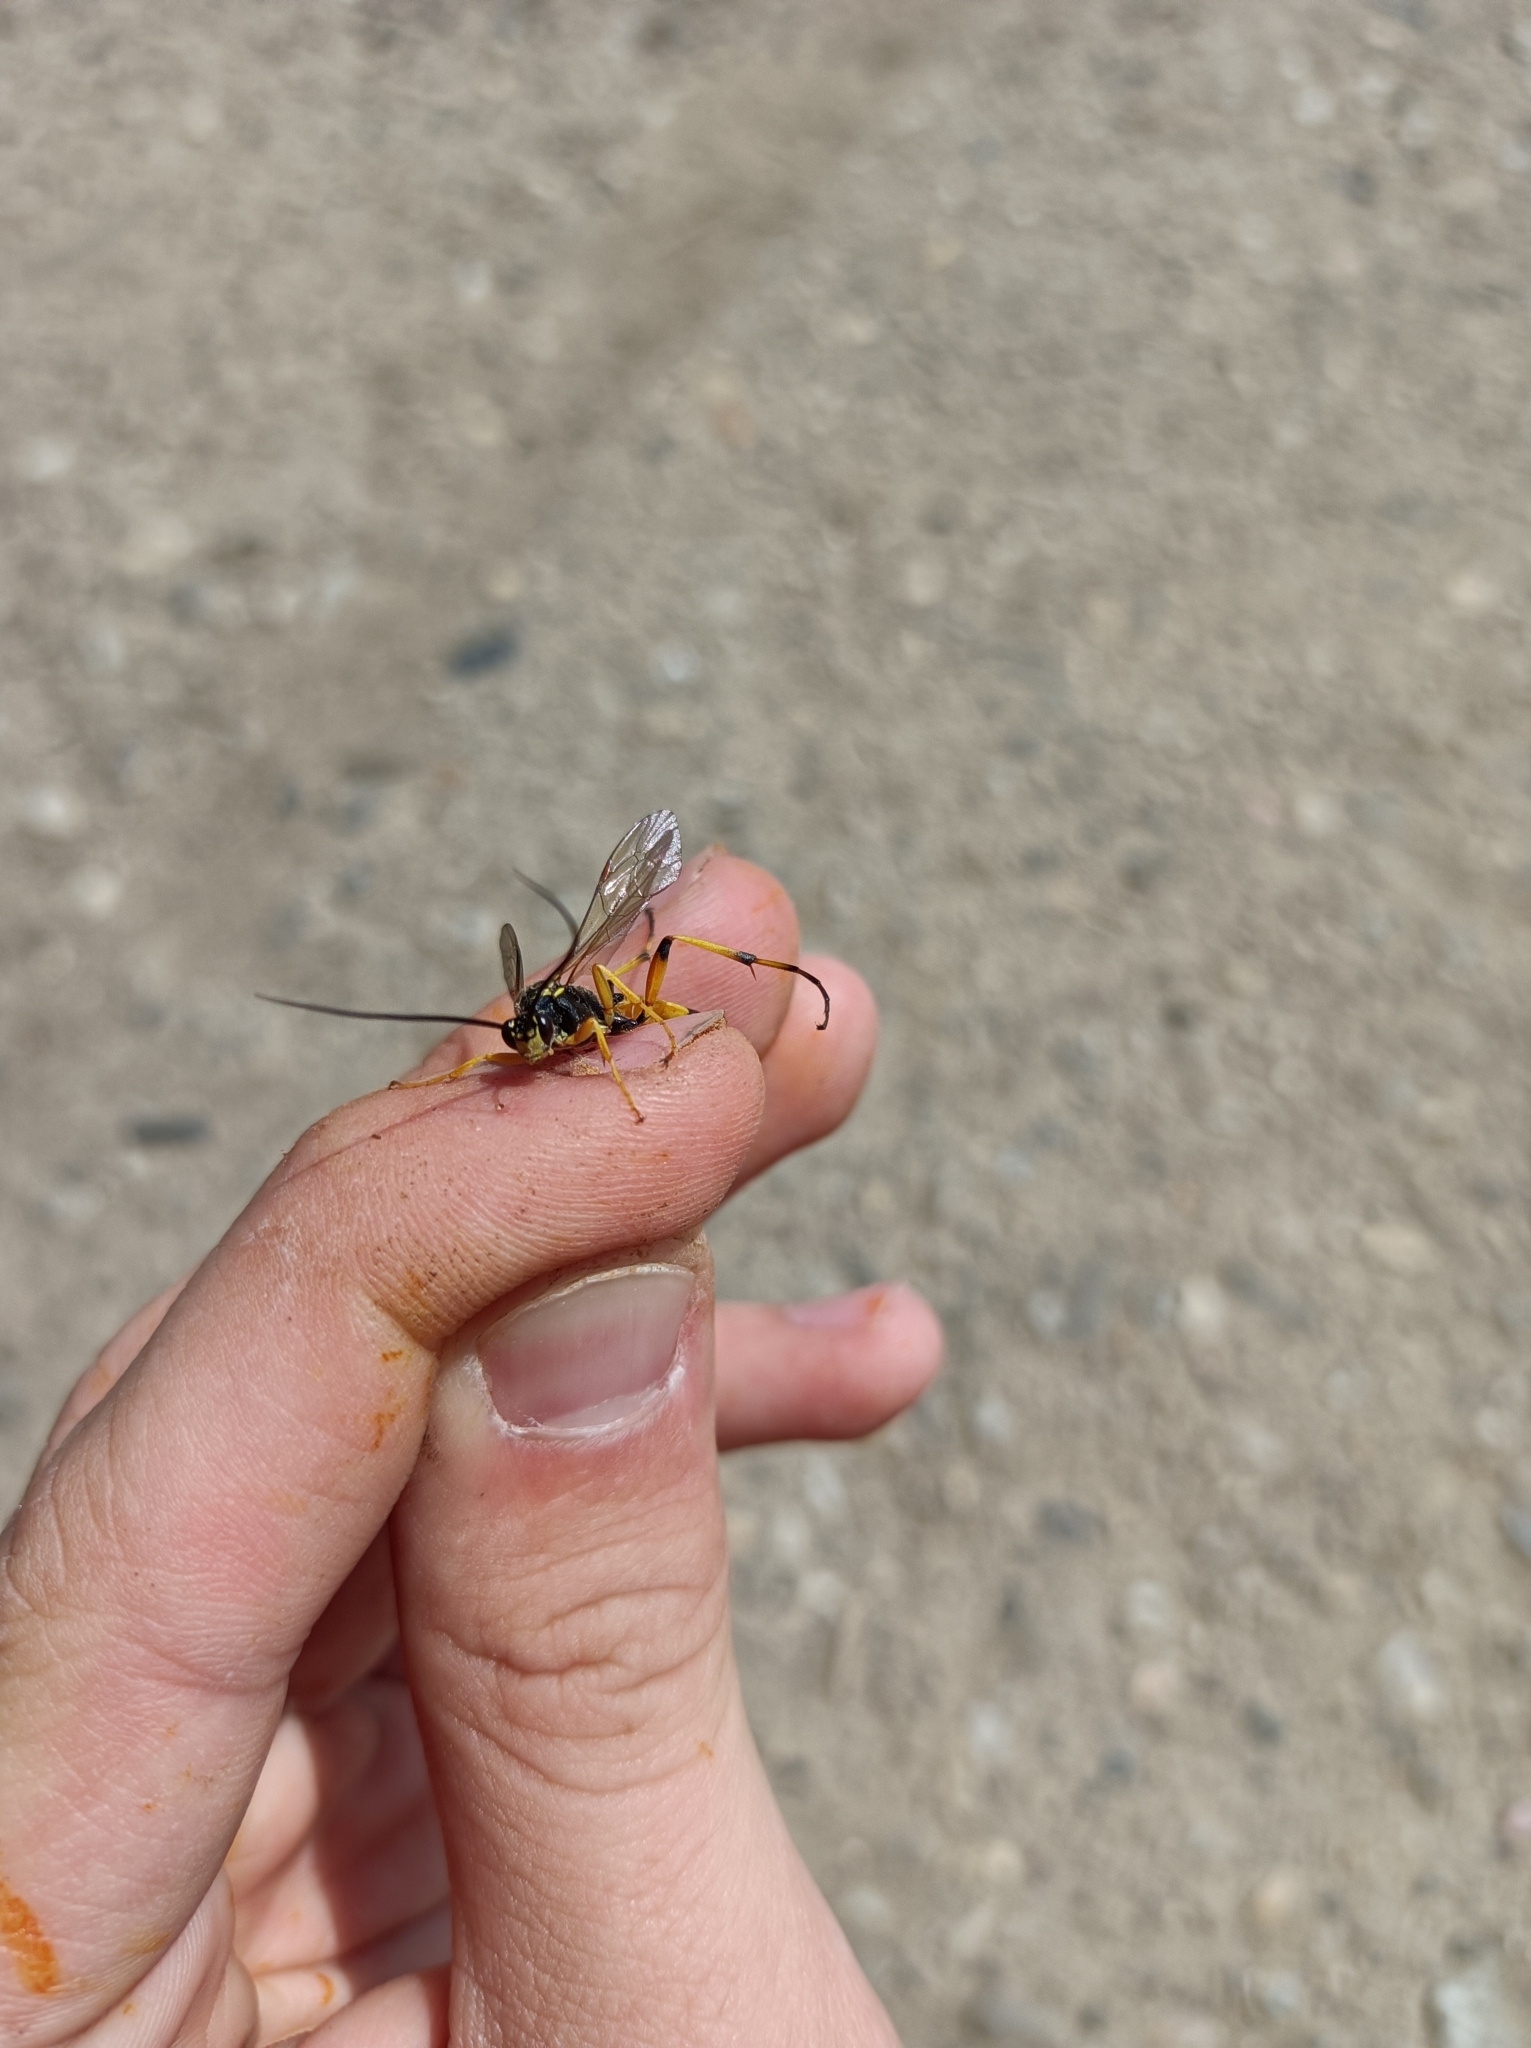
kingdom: Animalia
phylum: Arthropoda
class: Insecta
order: Hymenoptera
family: Ichneumonidae
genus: Ichneumon
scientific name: Ichneumon xanthorius
